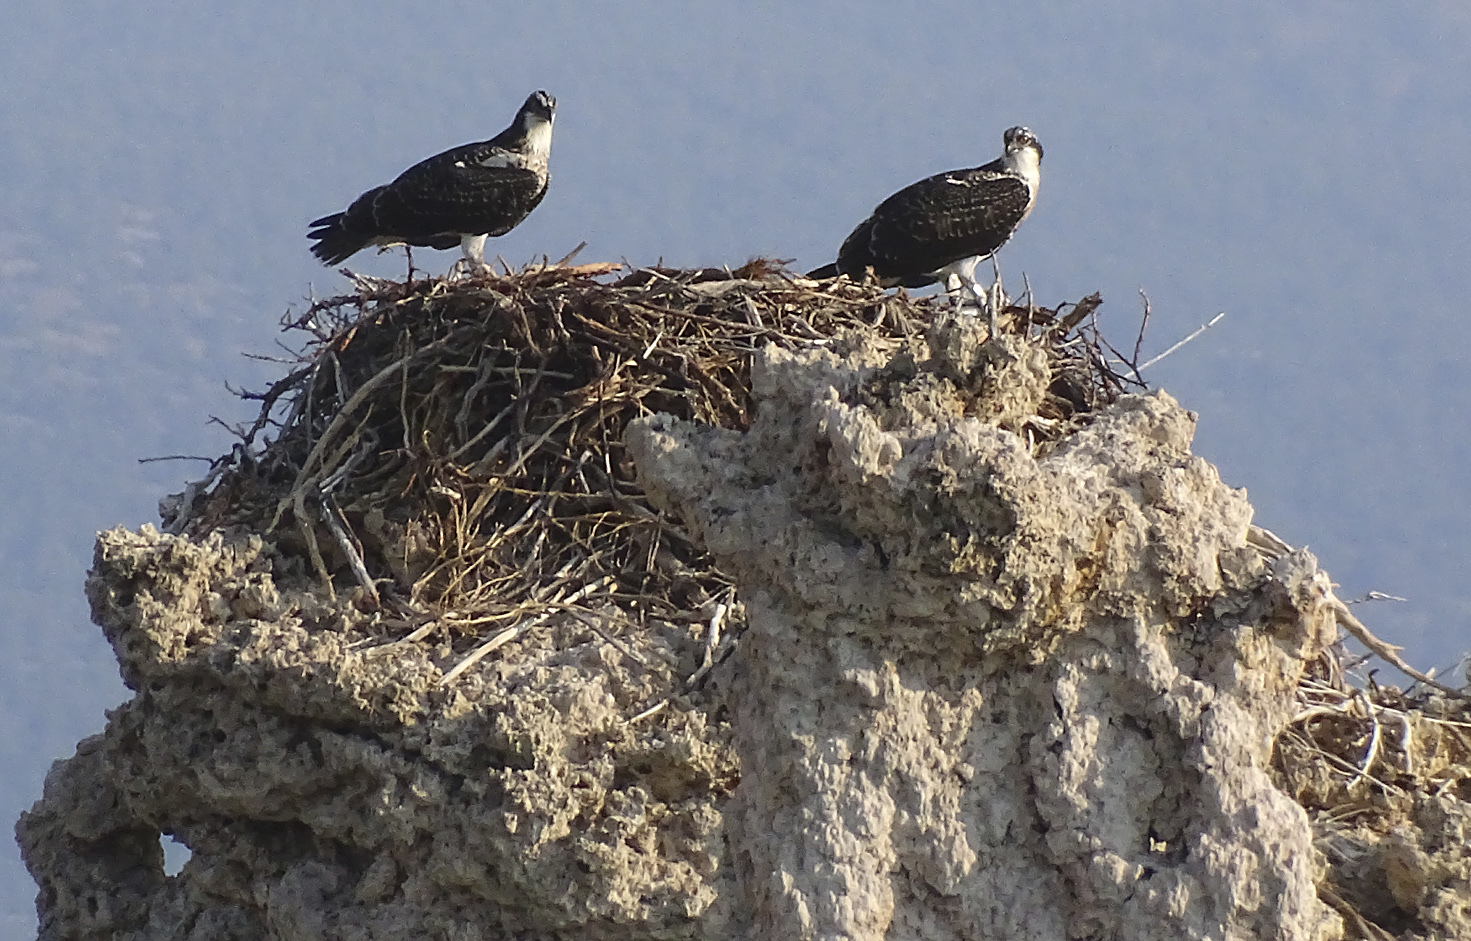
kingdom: Animalia
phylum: Chordata
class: Aves
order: Accipitriformes
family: Pandionidae
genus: Pandion
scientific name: Pandion haliaetus
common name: Osprey
